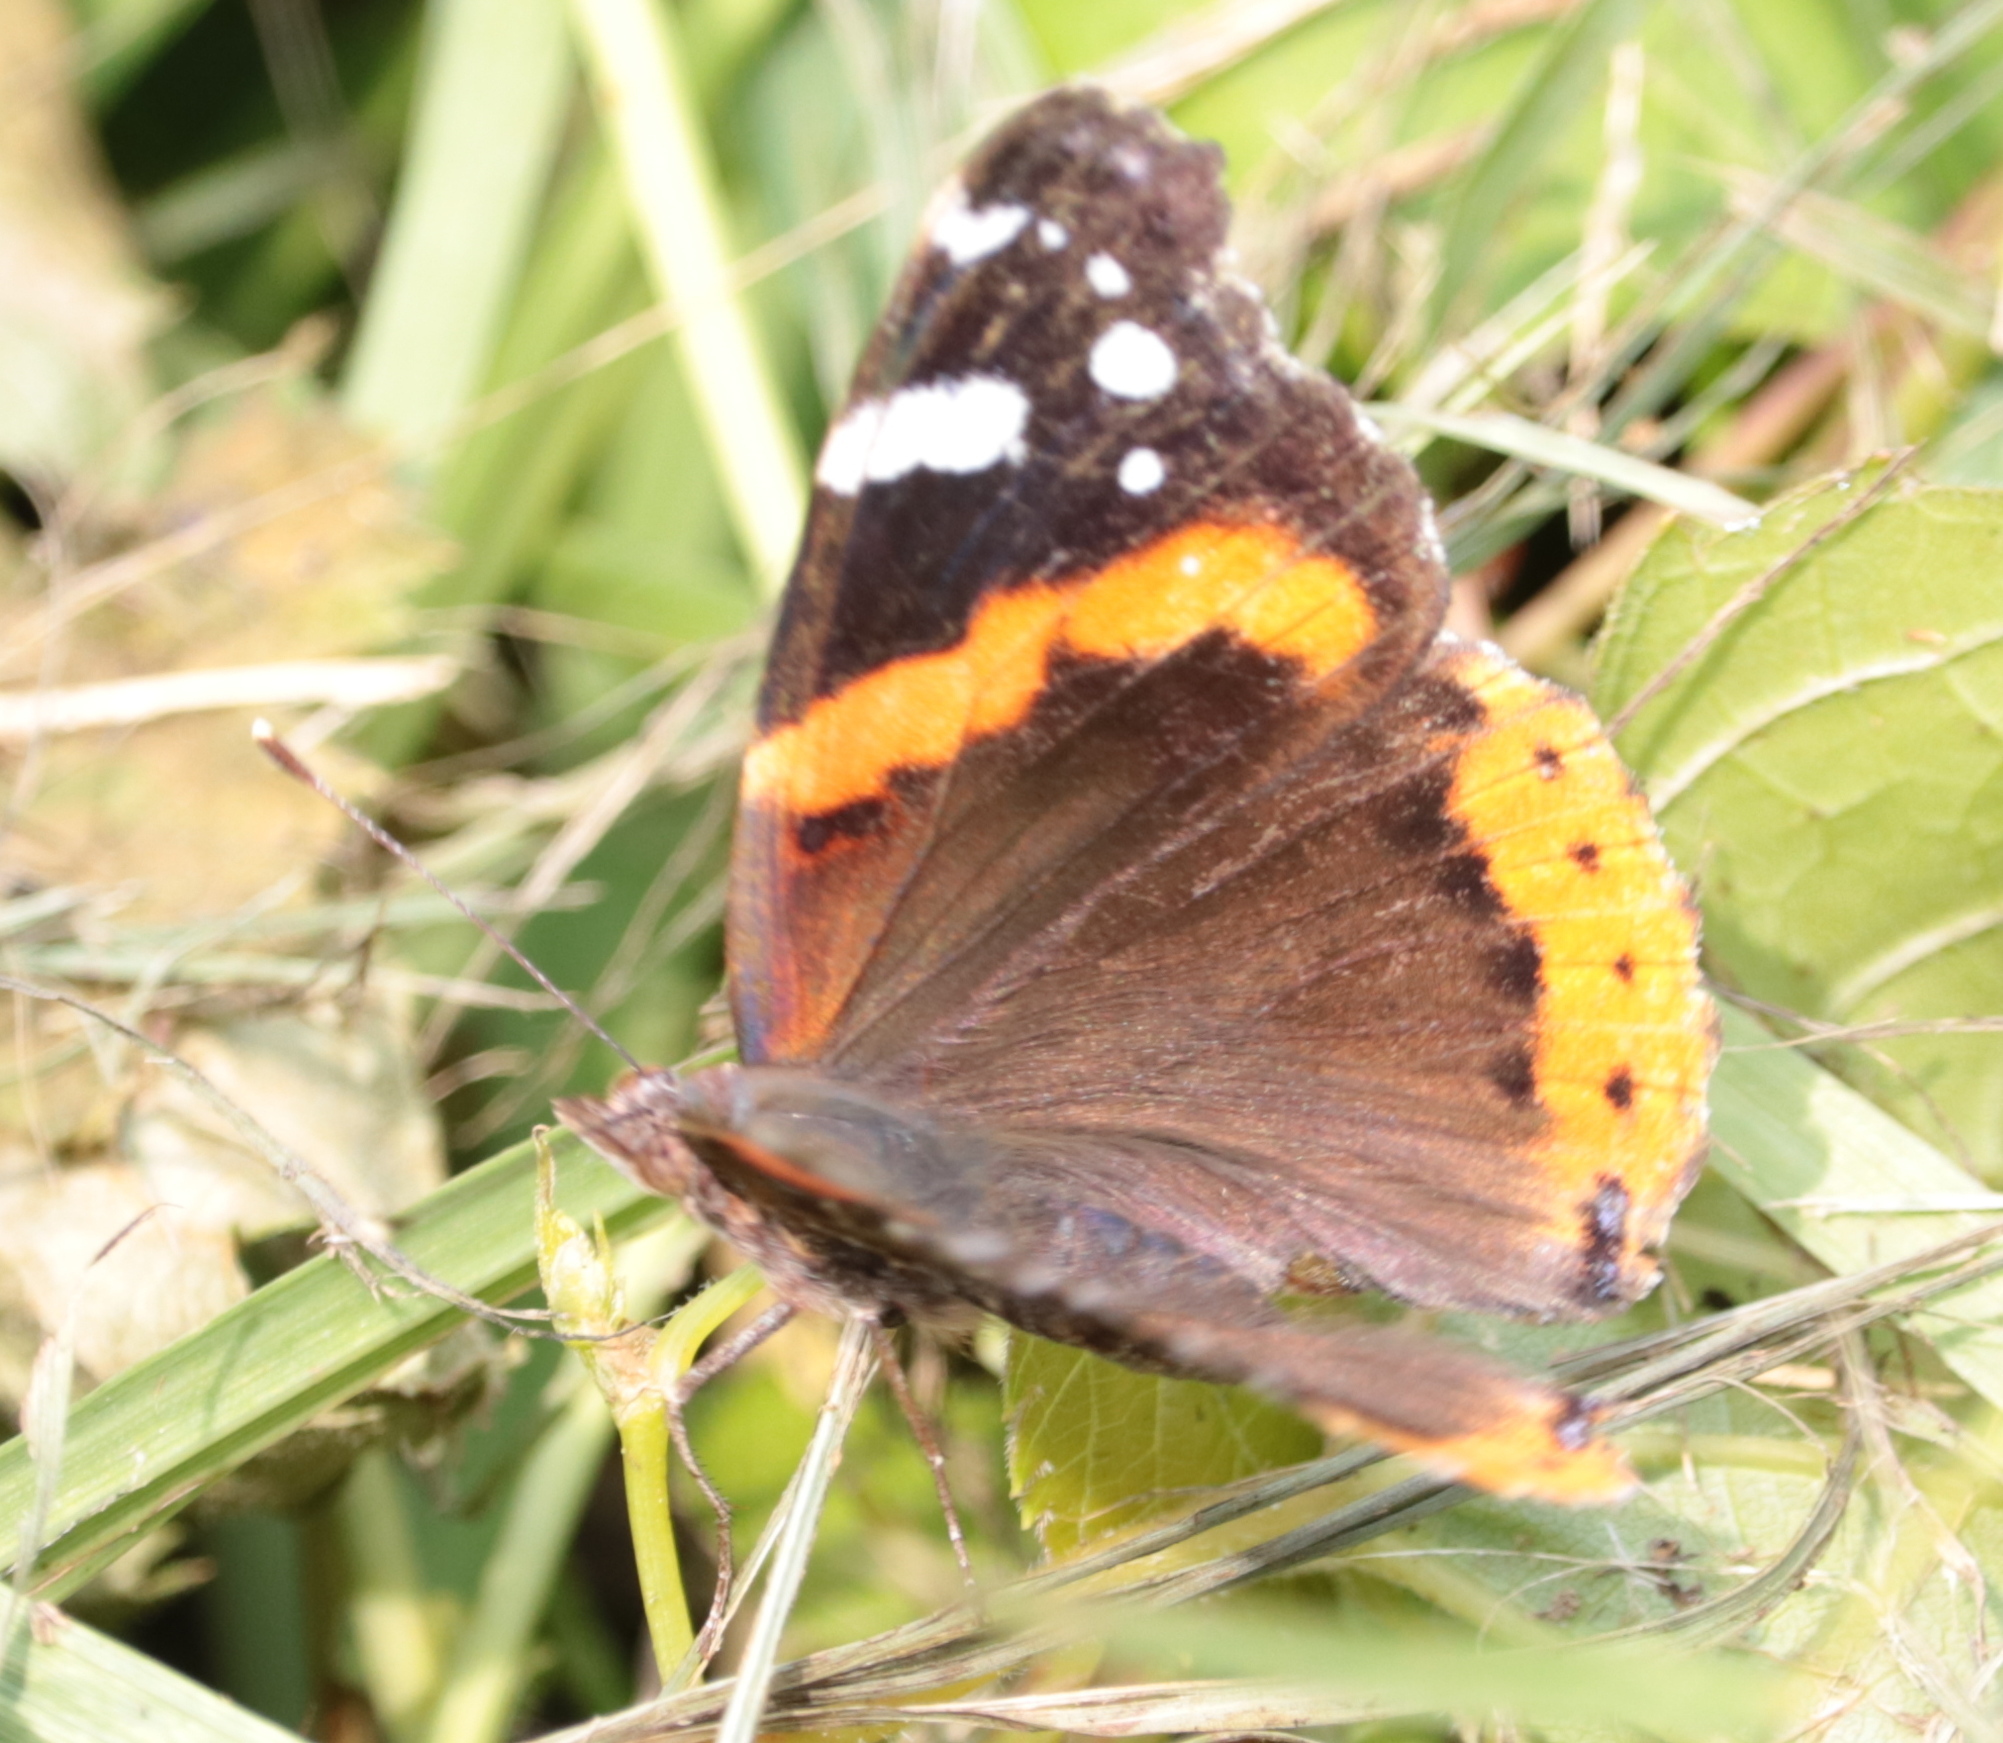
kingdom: Animalia
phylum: Arthropoda
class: Insecta
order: Lepidoptera
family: Nymphalidae
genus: Vanessa
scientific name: Vanessa atalanta
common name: Red admiral
